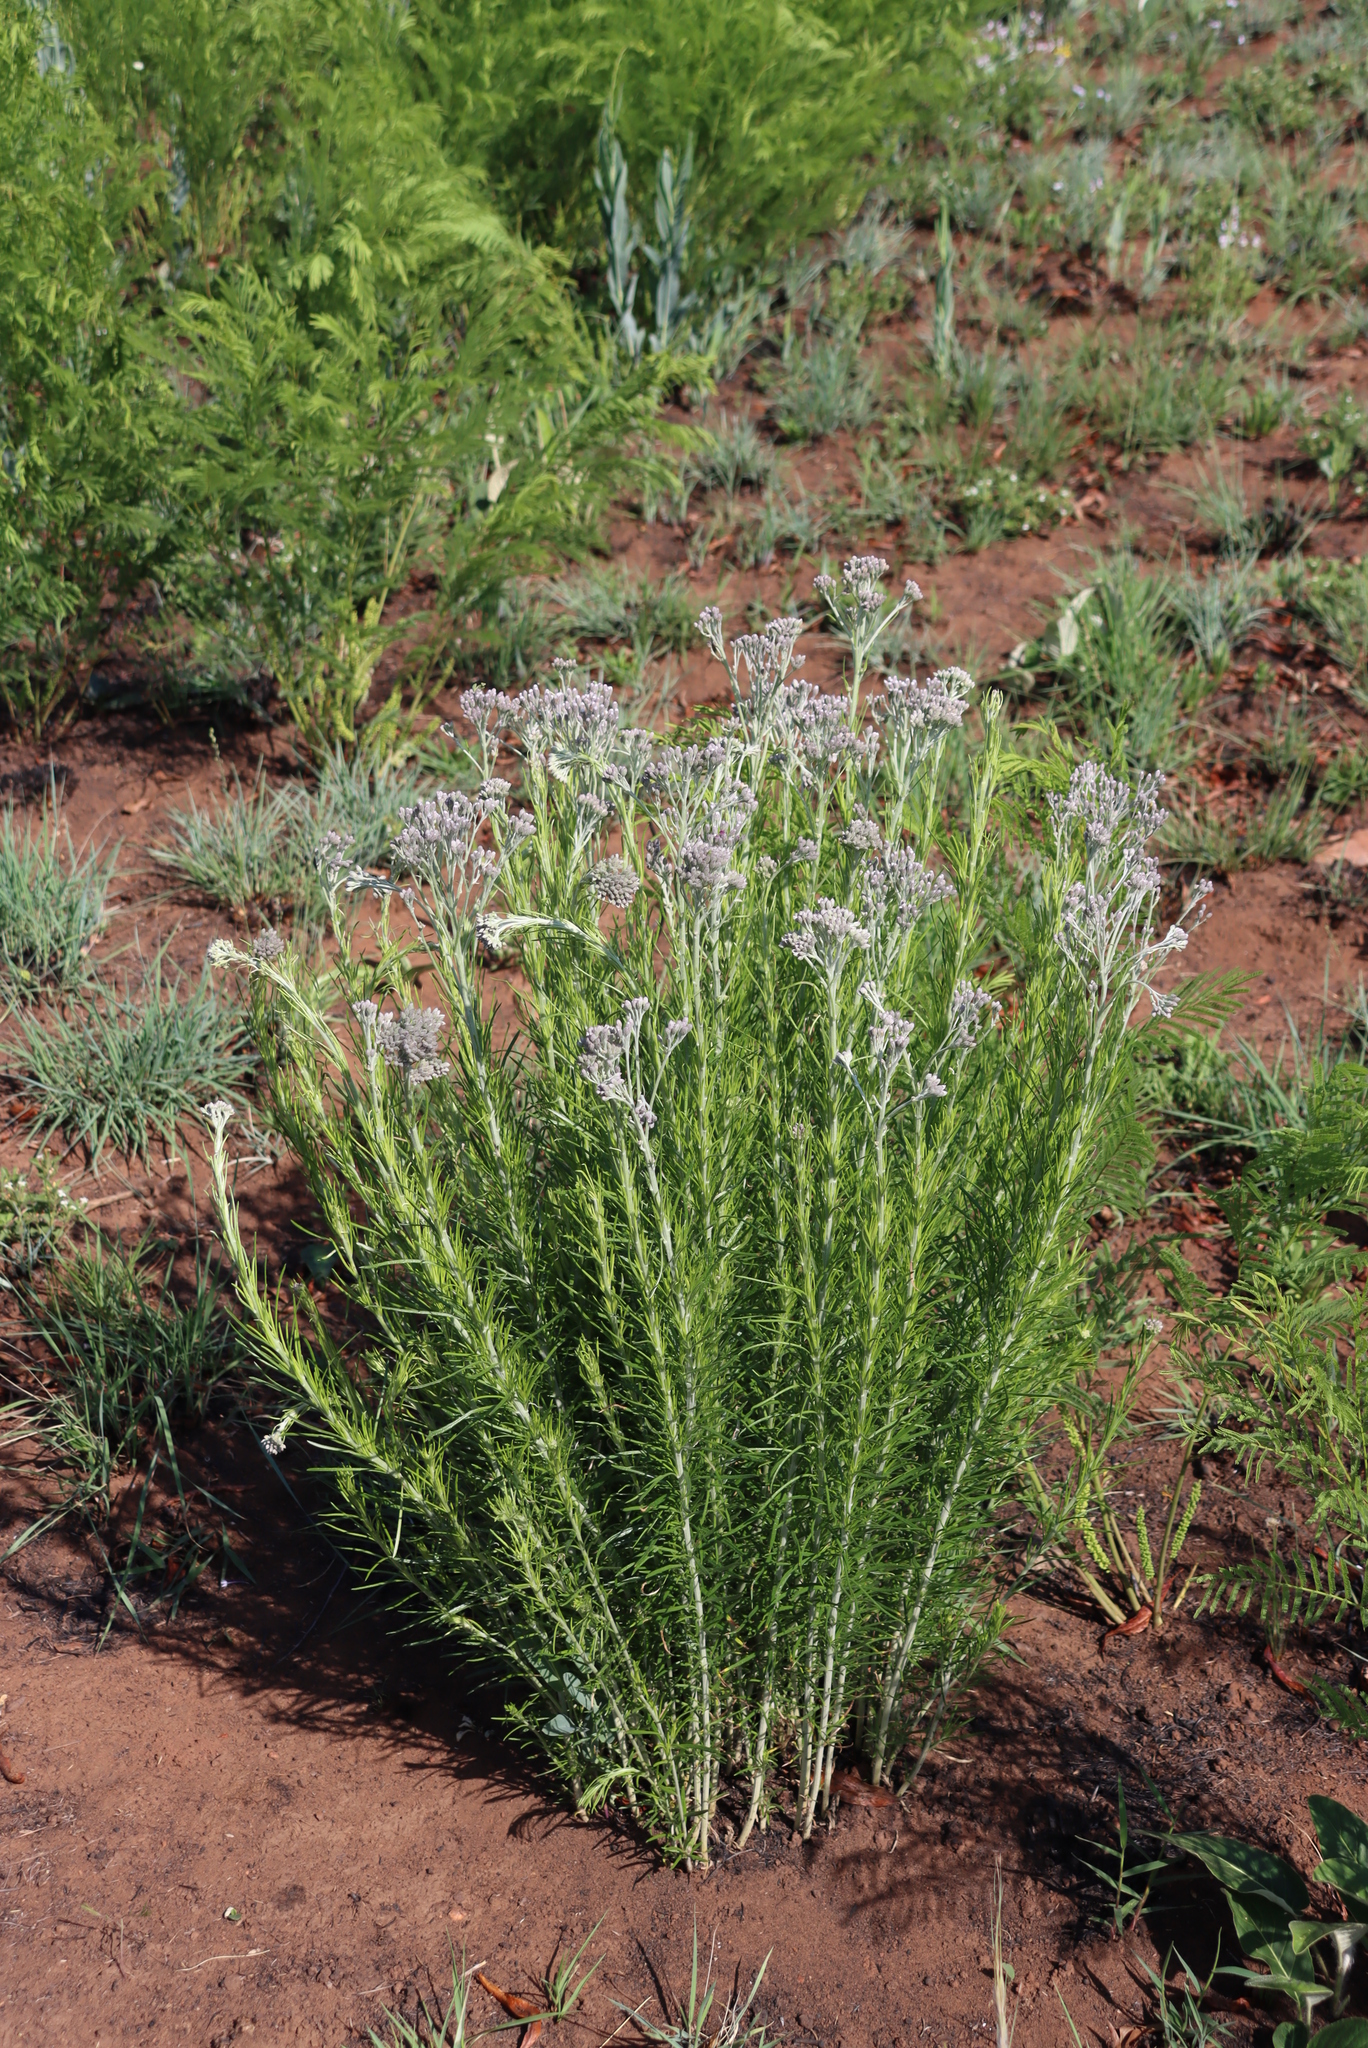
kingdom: Plantae
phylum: Tracheophyta
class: Magnoliopsida
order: Asterales
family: Asteraceae
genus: Hilliardiella
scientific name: Hilliardiella capensis
